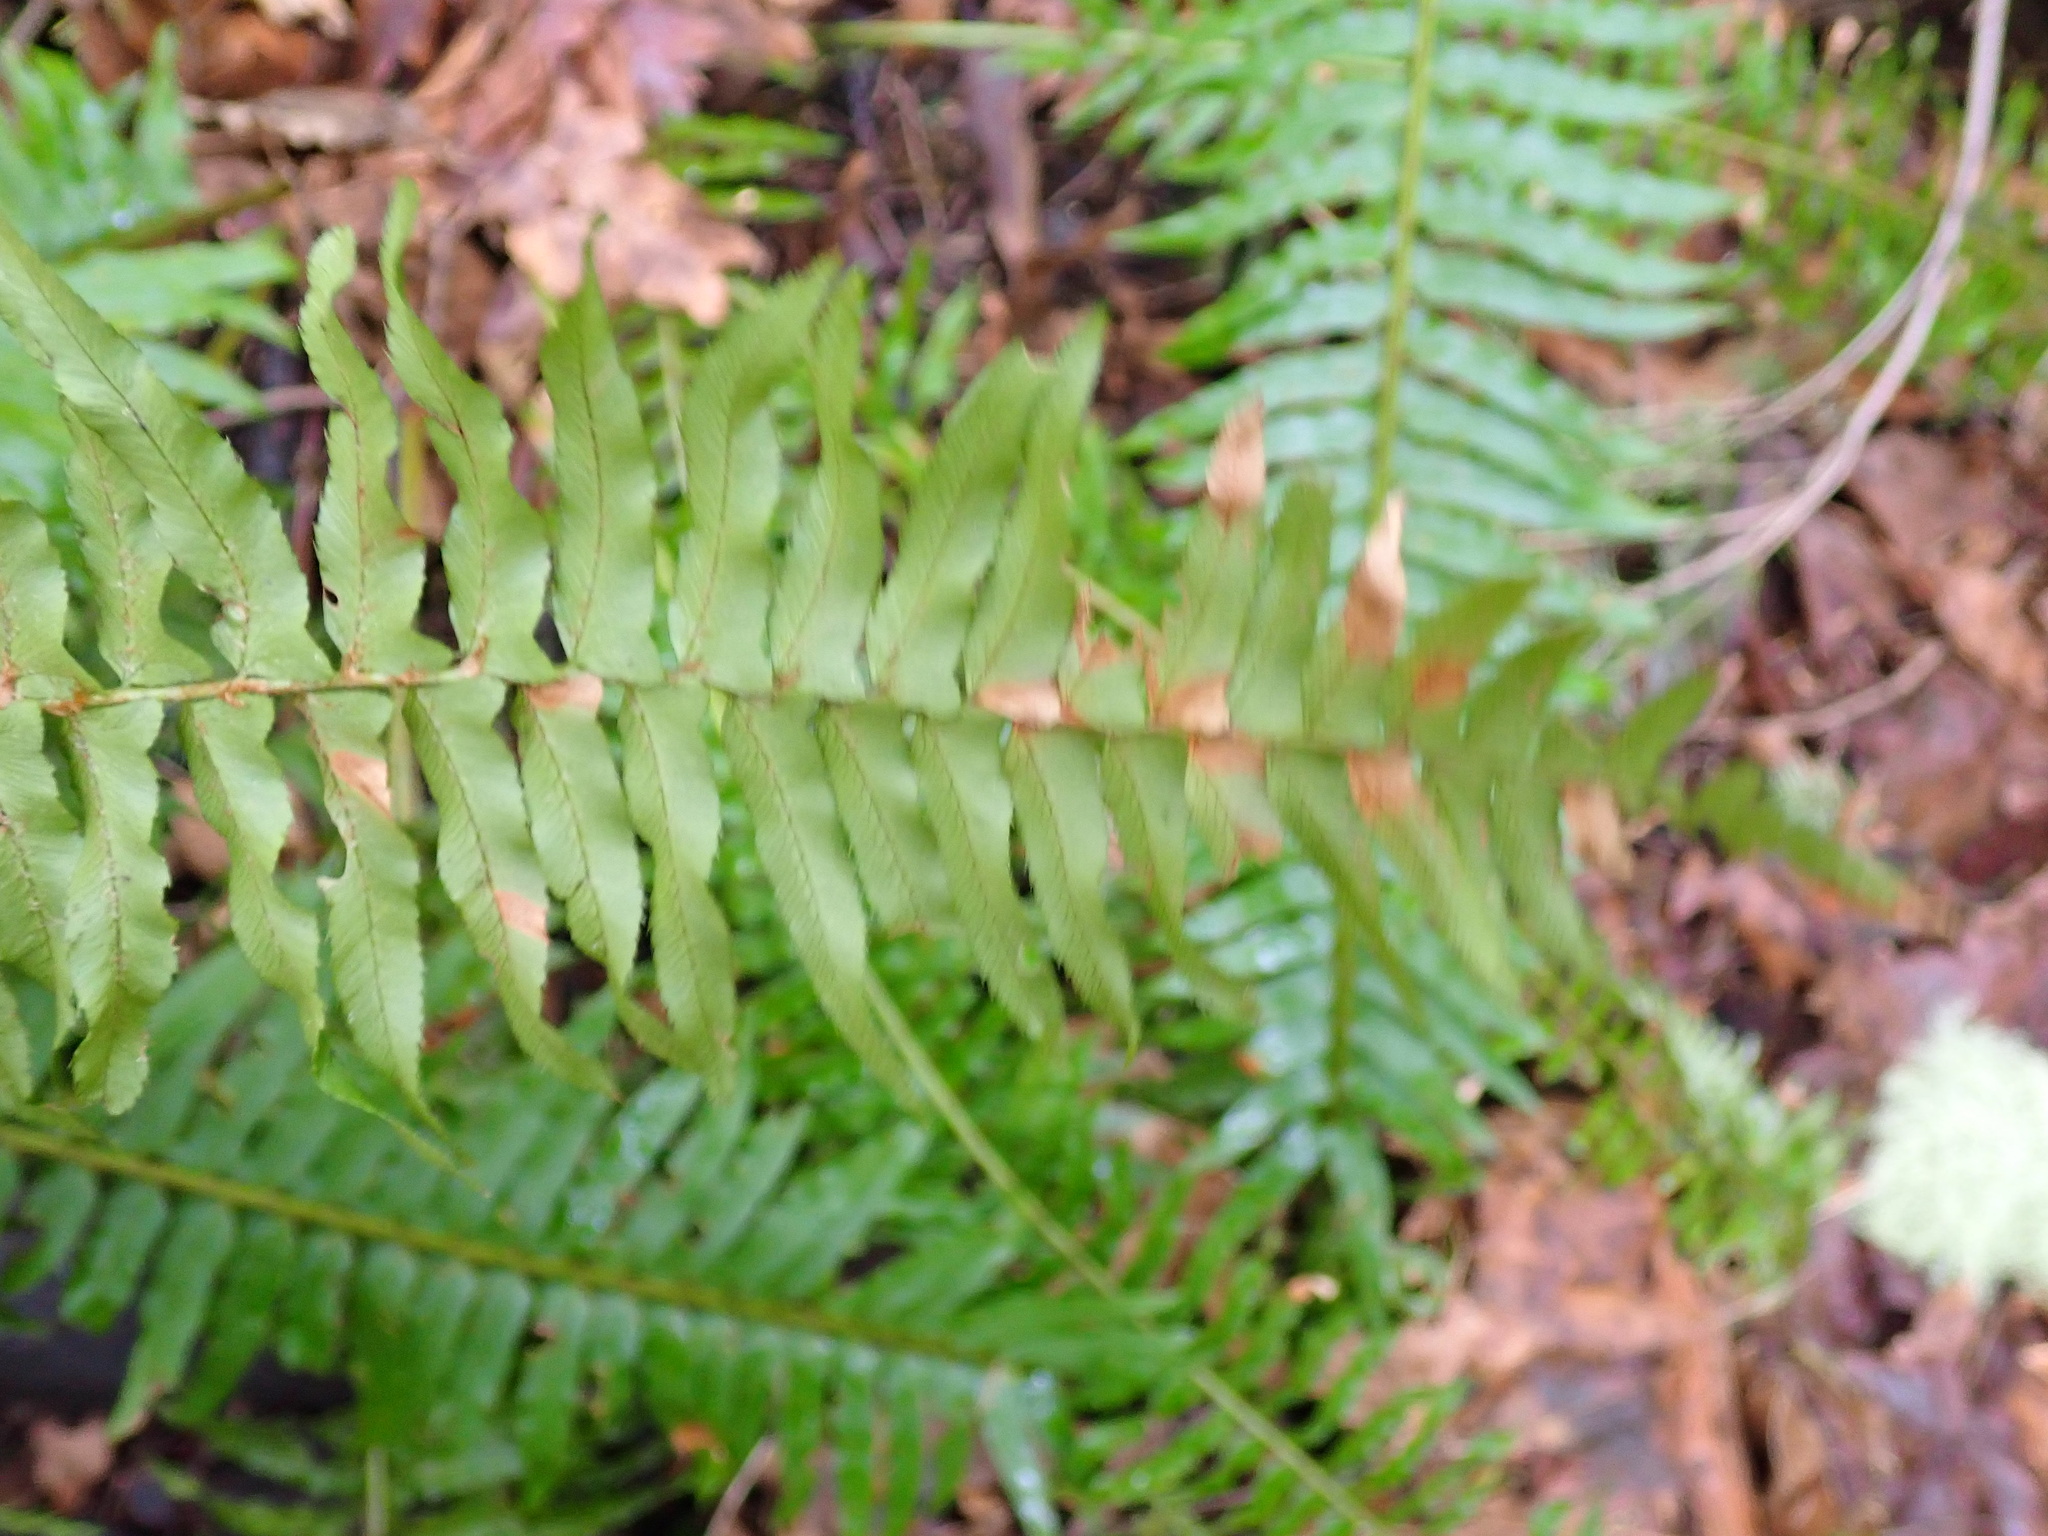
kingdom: Plantae
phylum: Tracheophyta
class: Polypodiopsida
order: Polypodiales
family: Dryopteridaceae
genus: Polystichum
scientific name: Polystichum munitum
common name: Western sword-fern
